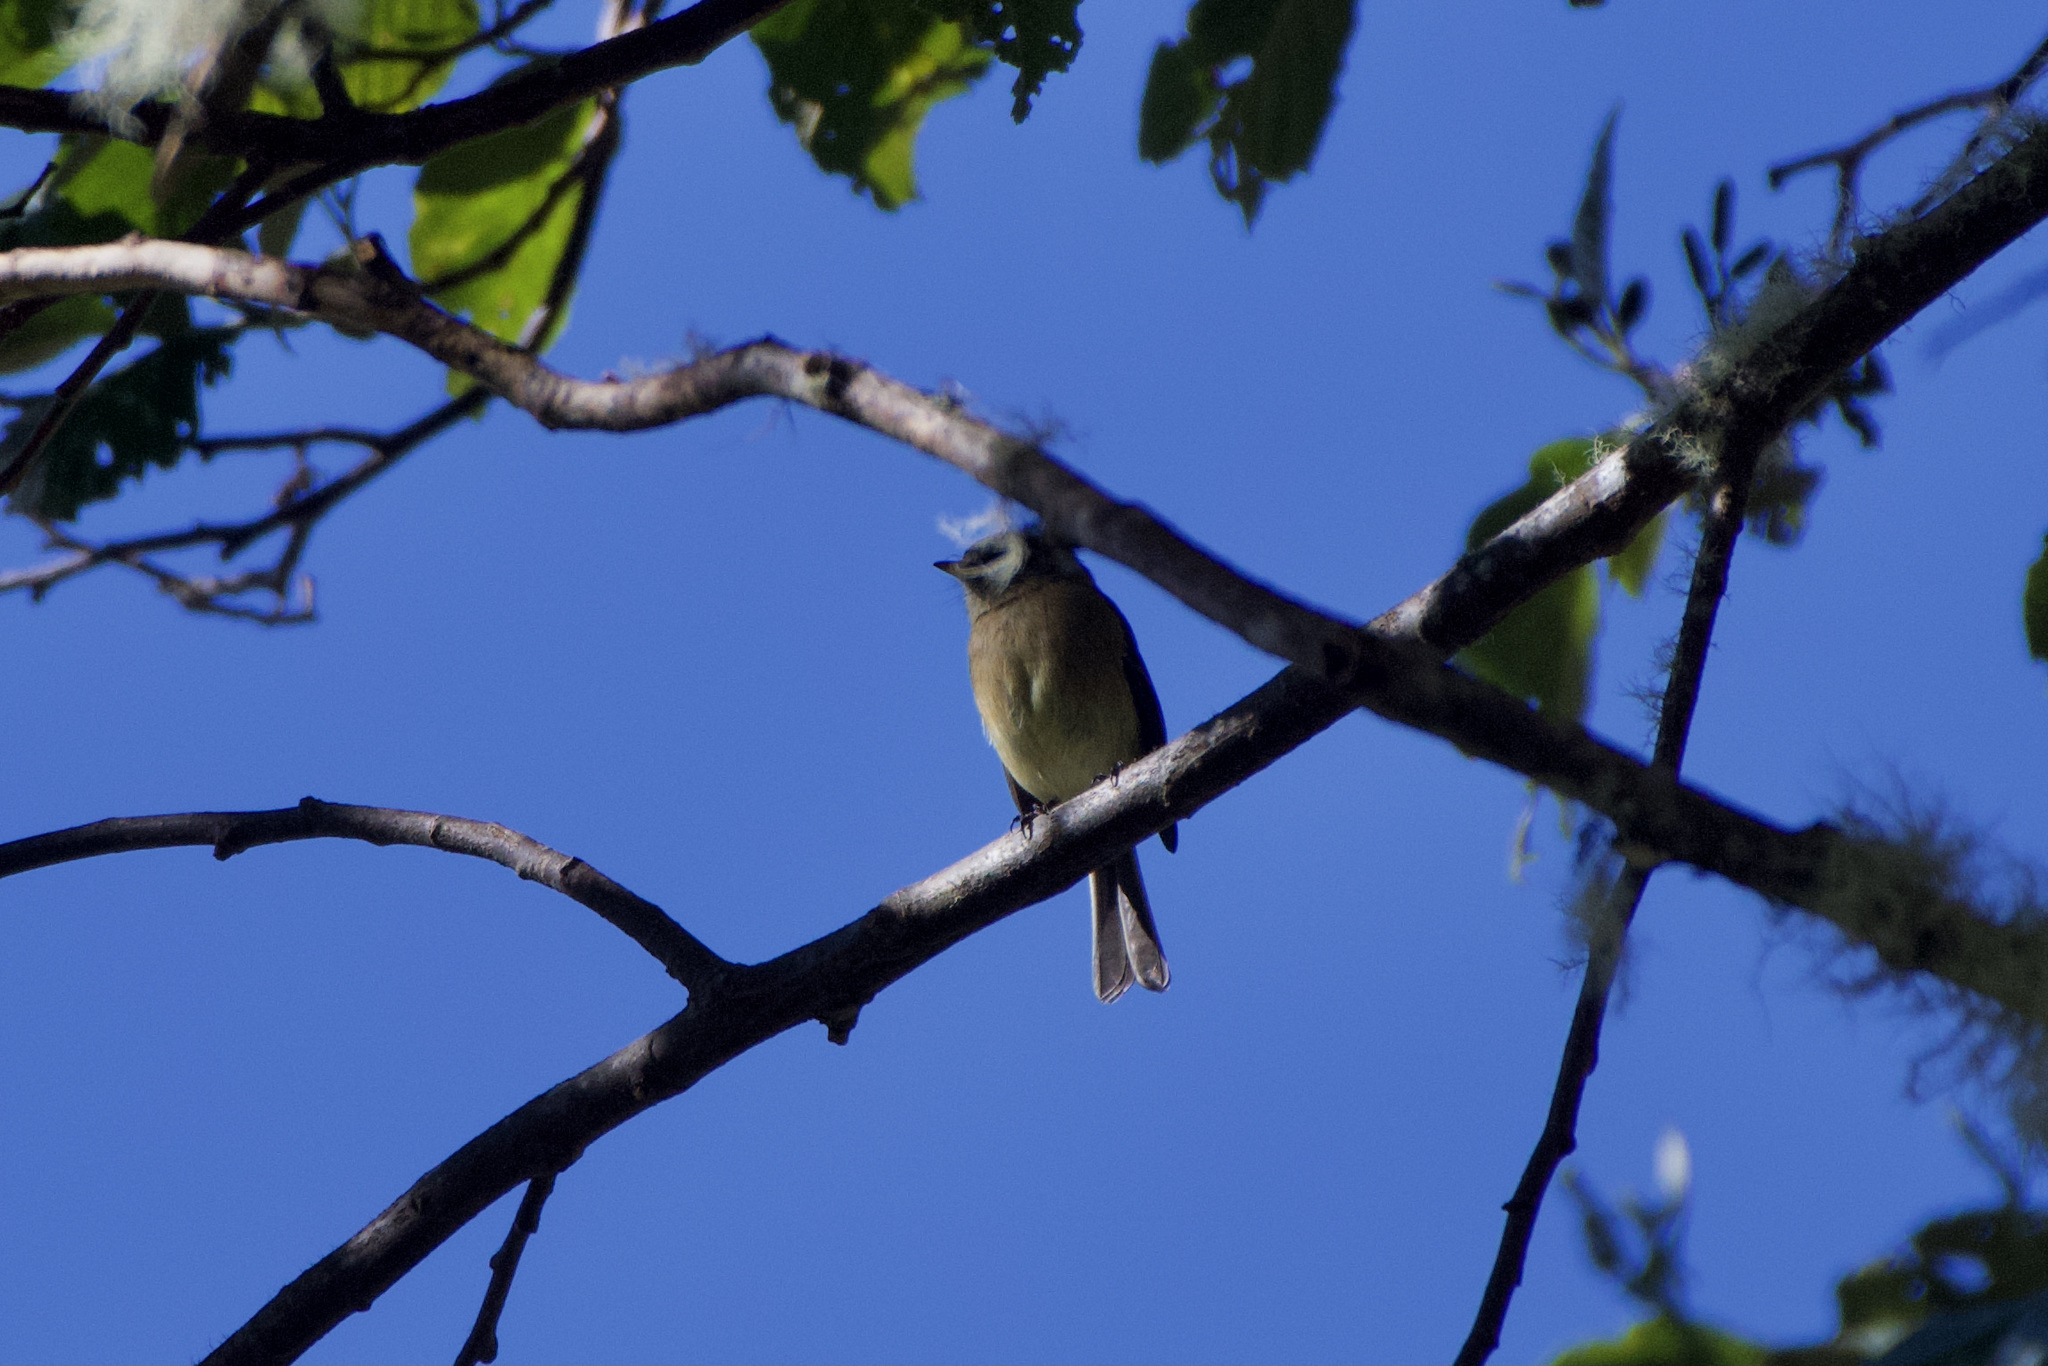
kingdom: Animalia
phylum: Chordata
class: Aves
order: Passeriformes
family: Tyrannidae
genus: Empidonax
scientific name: Empidonax atriceps
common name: Black-capped flycatcher
